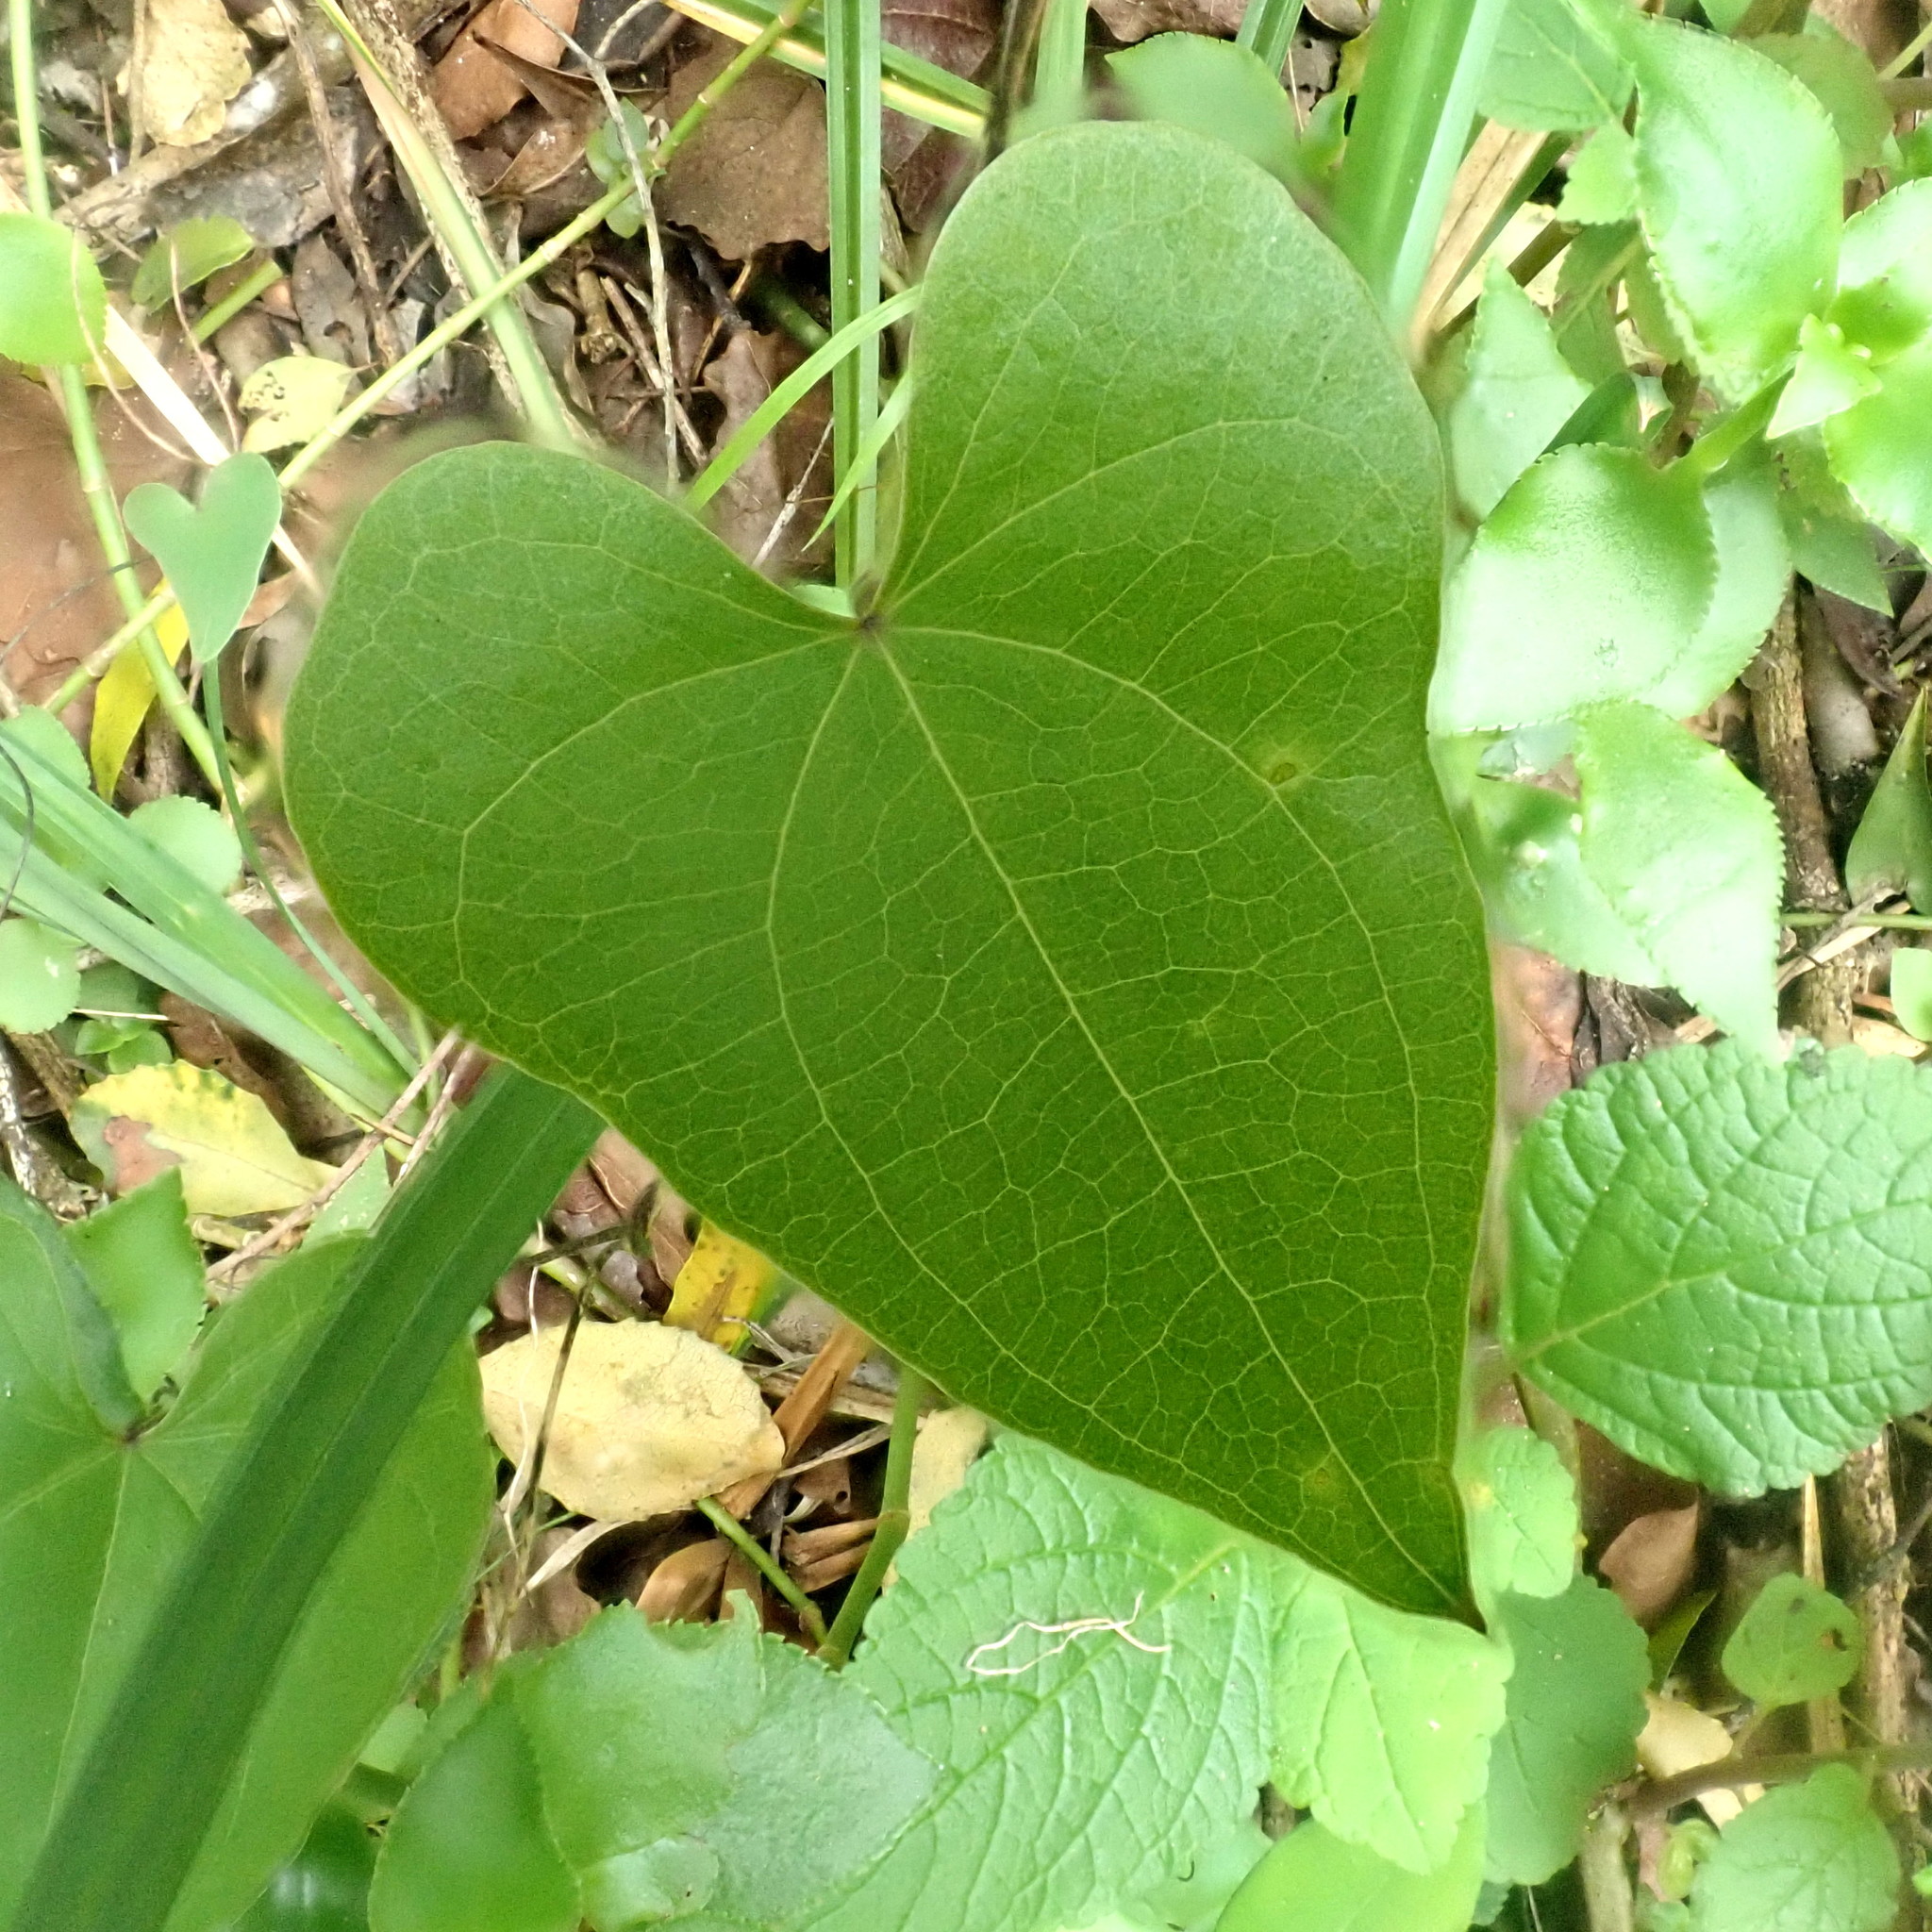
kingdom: Plantae
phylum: Tracheophyta
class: Liliopsida
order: Dioscoreales
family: Dioscoreaceae
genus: Dioscorea
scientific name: Dioscorea sylvatica
